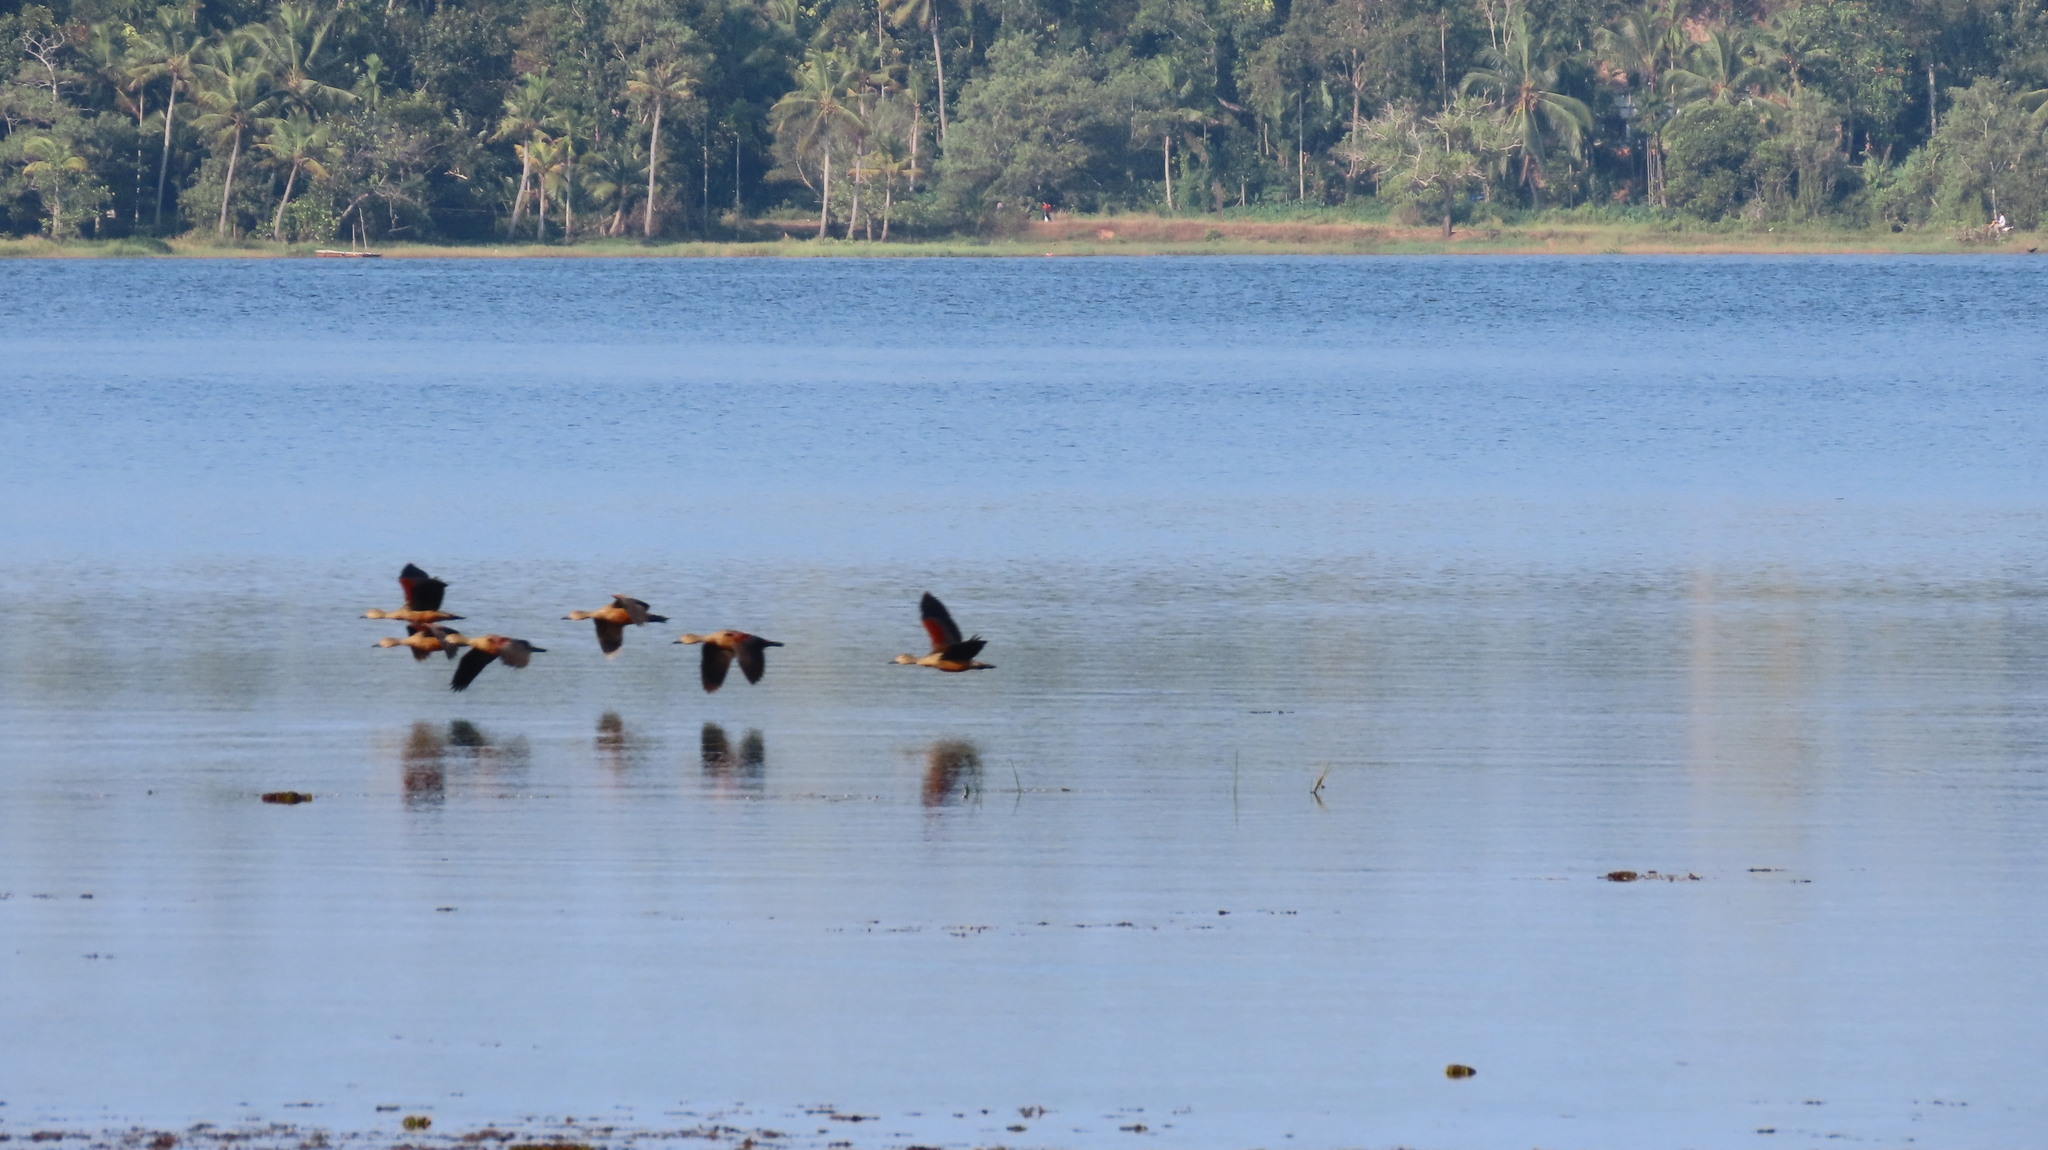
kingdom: Animalia
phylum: Chordata
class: Aves
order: Anseriformes
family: Anatidae
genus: Dendrocygna
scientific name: Dendrocygna javanica
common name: Lesser whistling-duck
